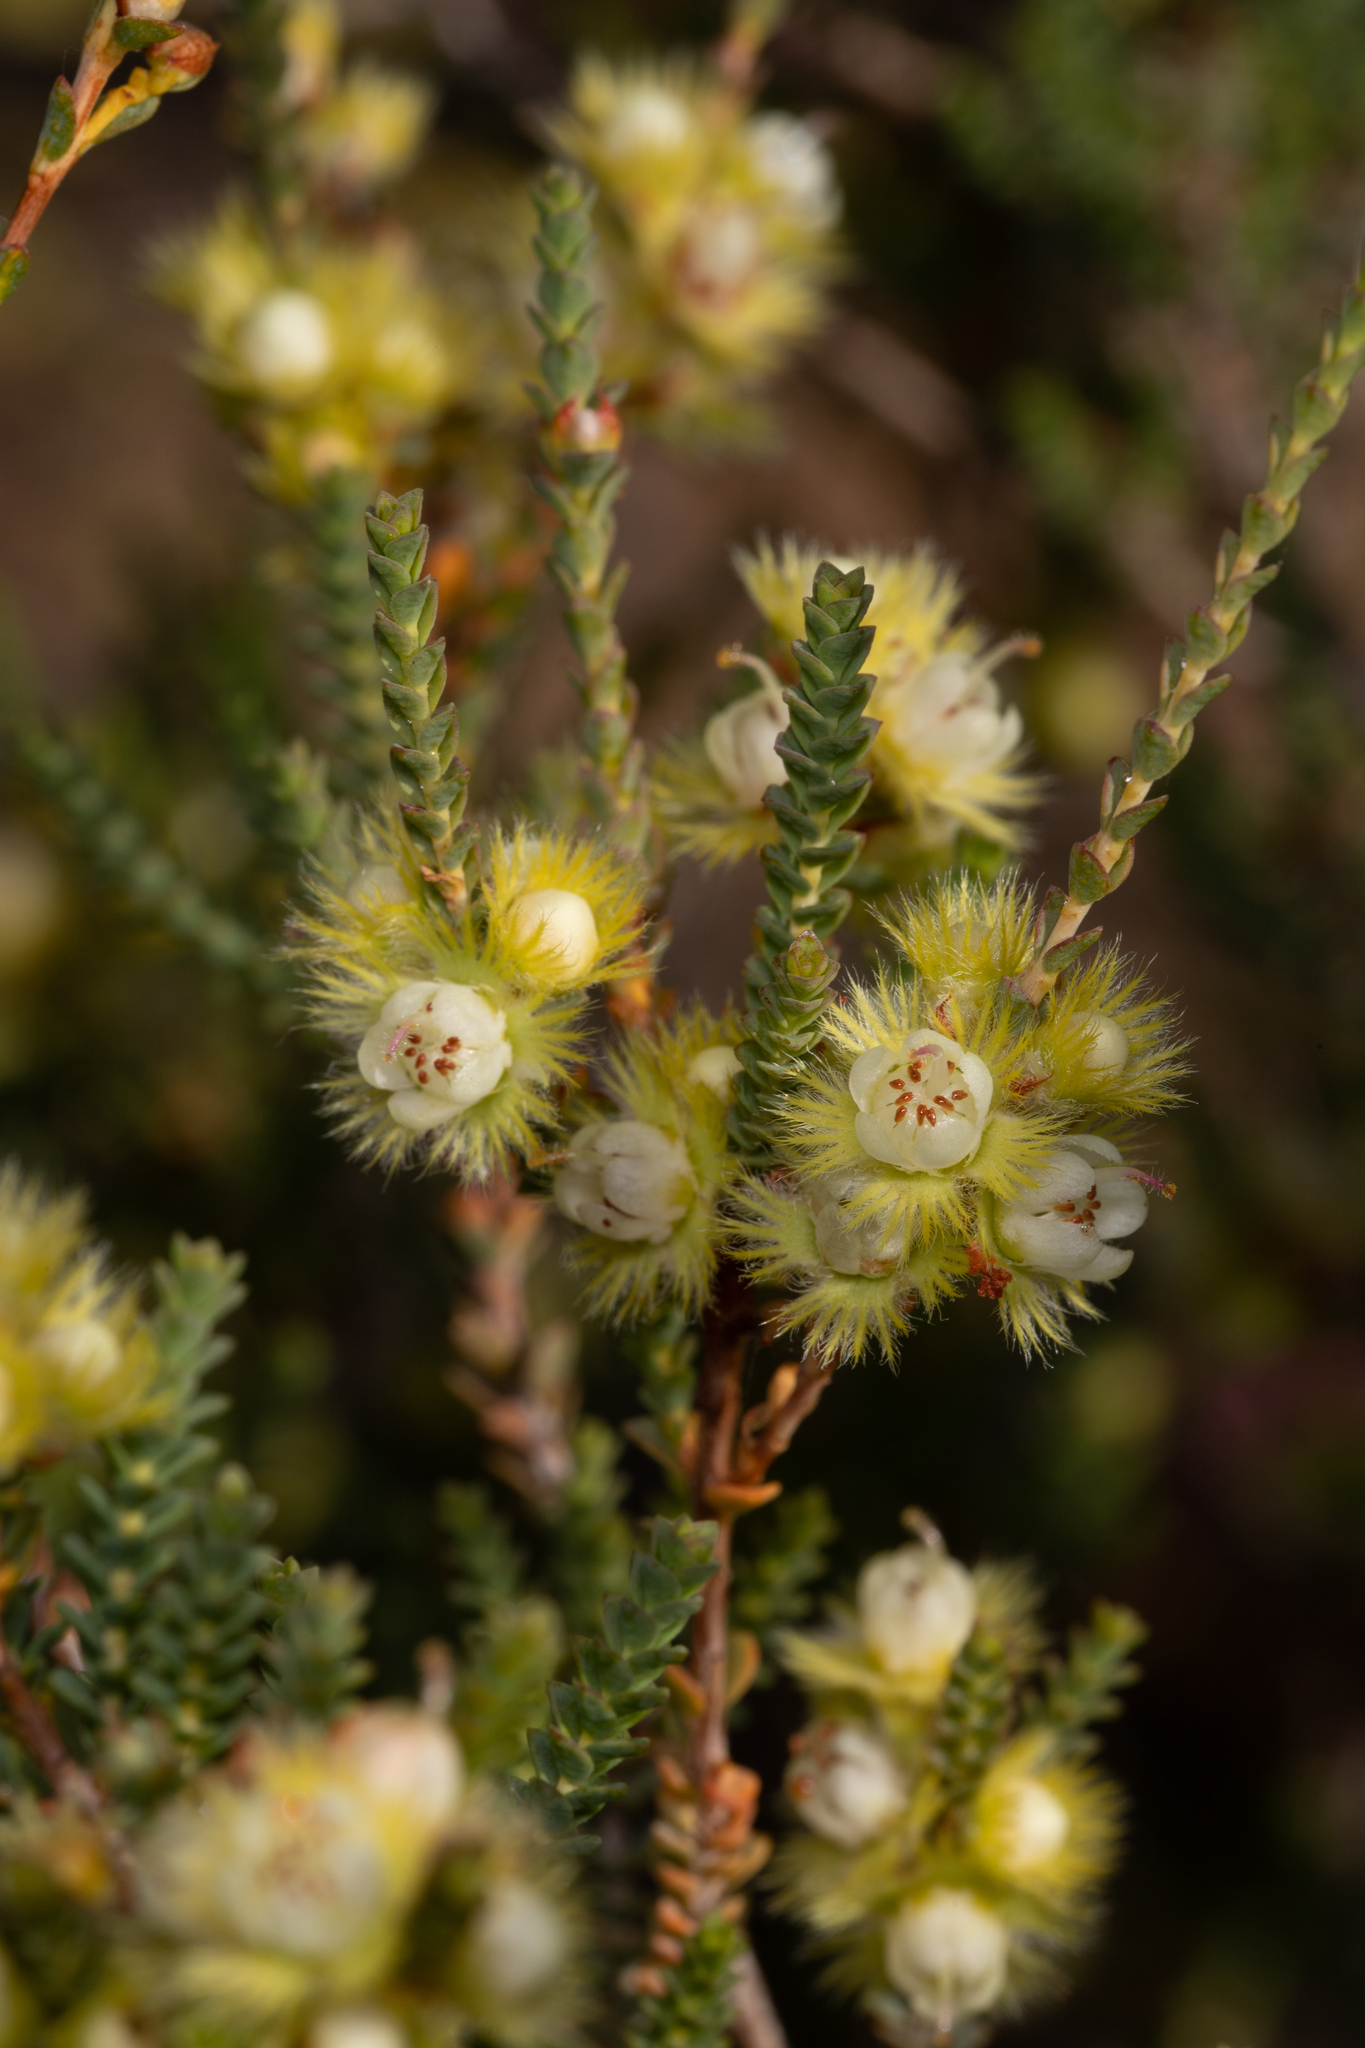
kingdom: Plantae
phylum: Tracheophyta
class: Magnoliopsida
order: Myrtales
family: Myrtaceae
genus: Verticordia
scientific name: Verticordia lepidophylla
